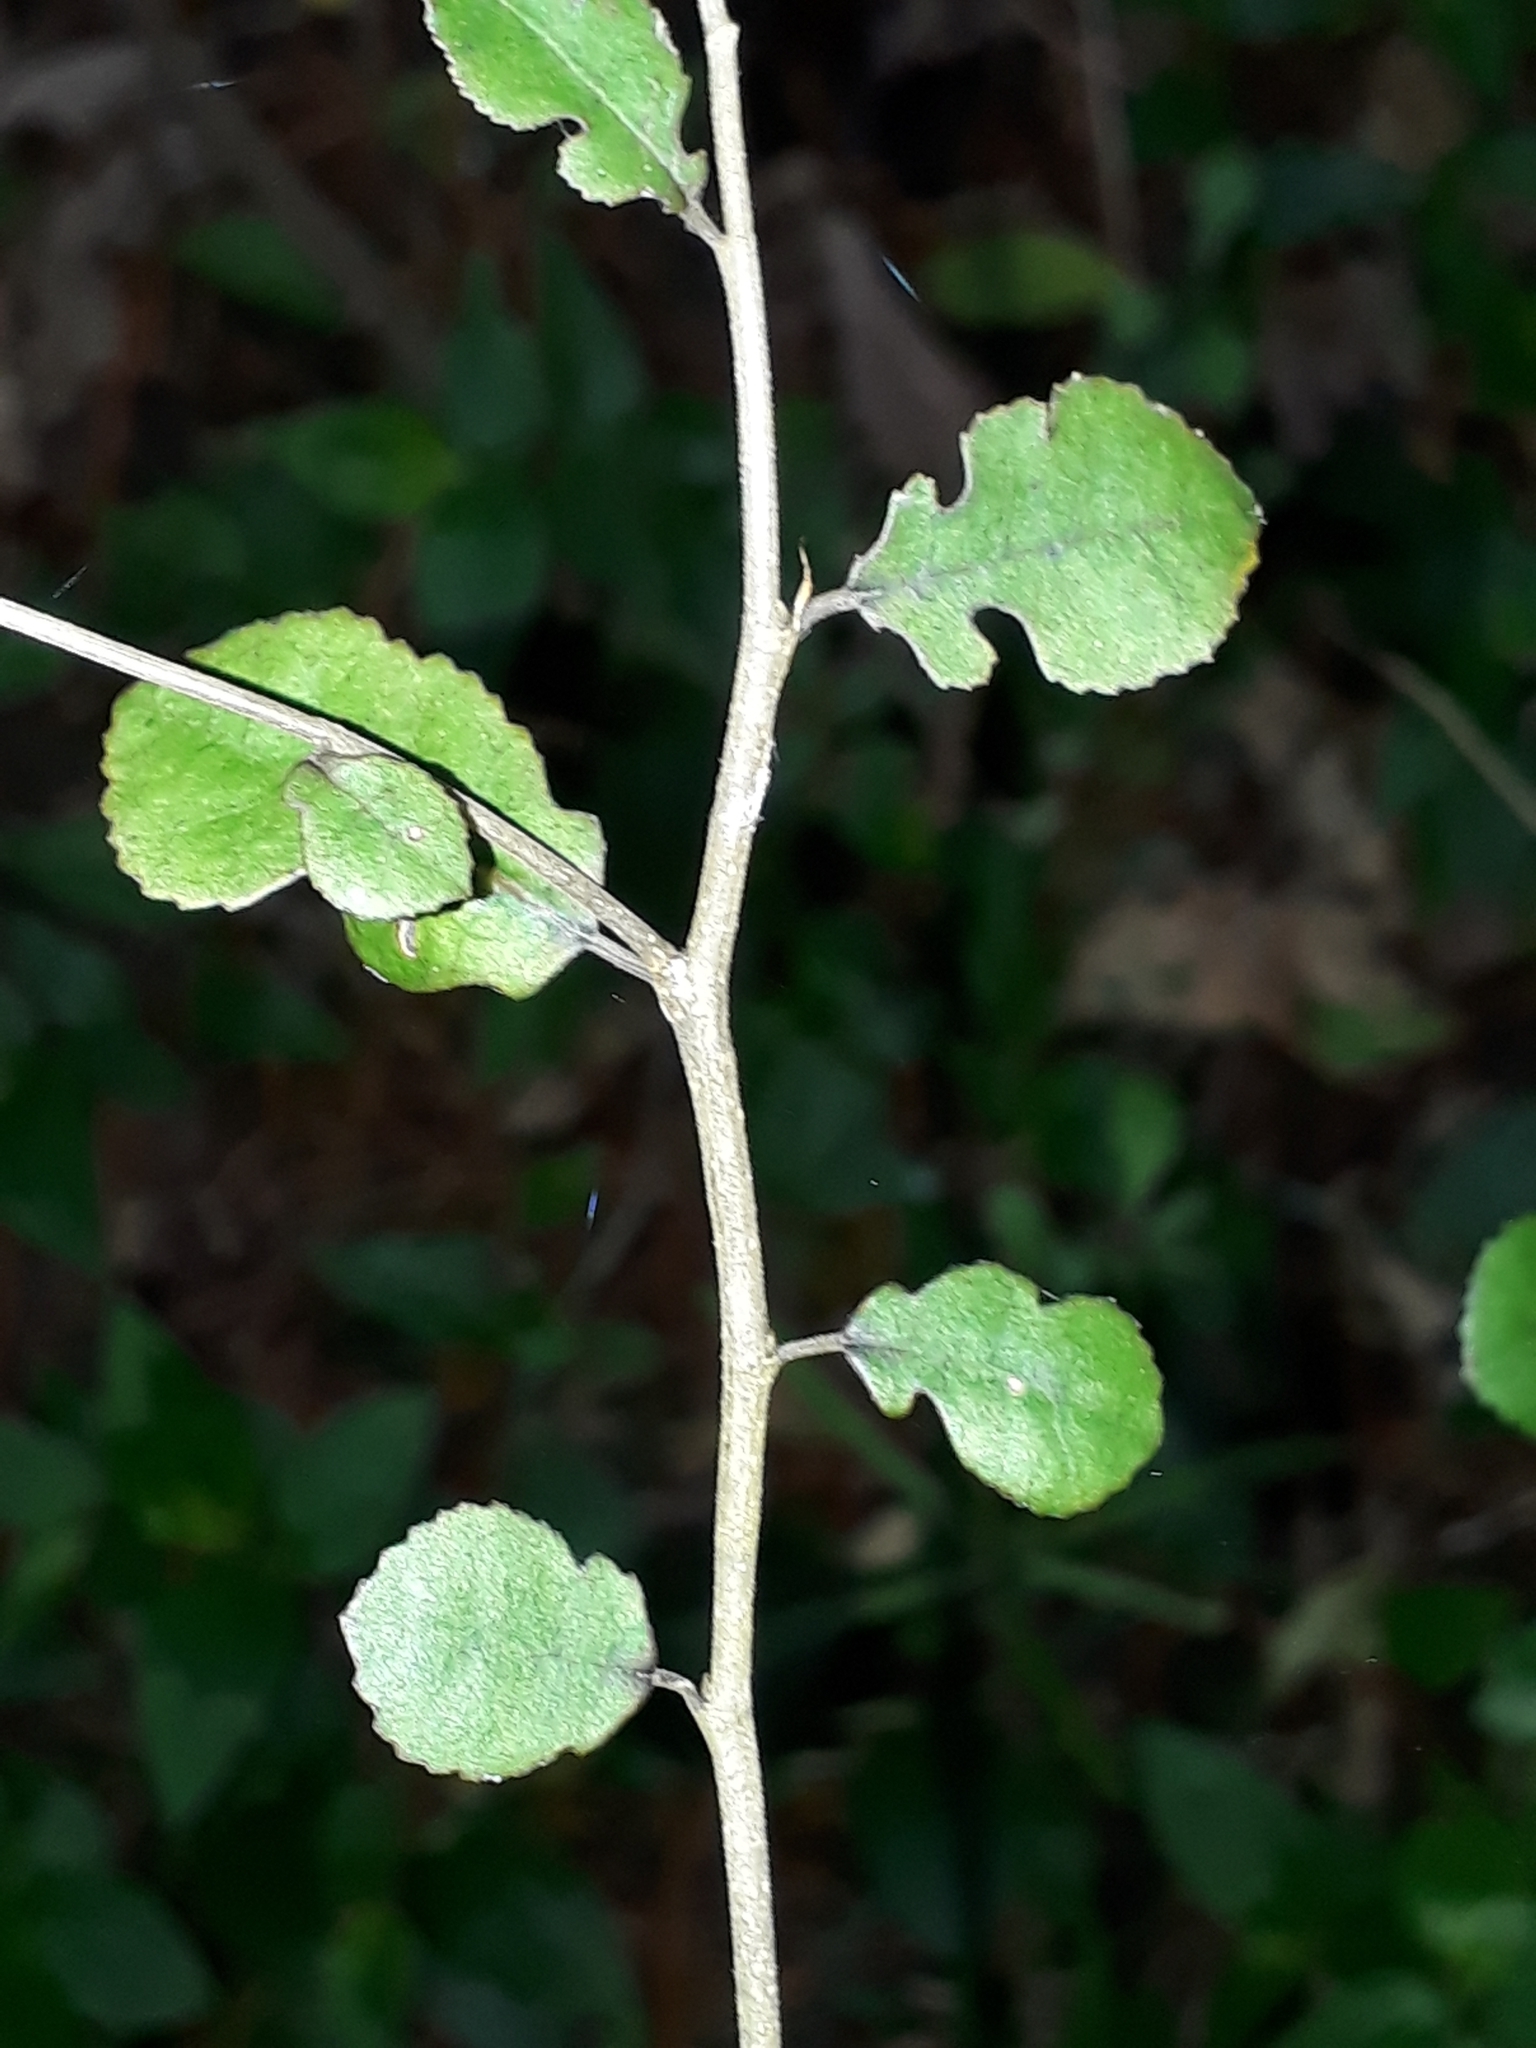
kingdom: Plantae
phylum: Tracheophyta
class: Magnoliopsida
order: Rosales
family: Moraceae
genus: Paratrophis
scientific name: Paratrophis microphylla
